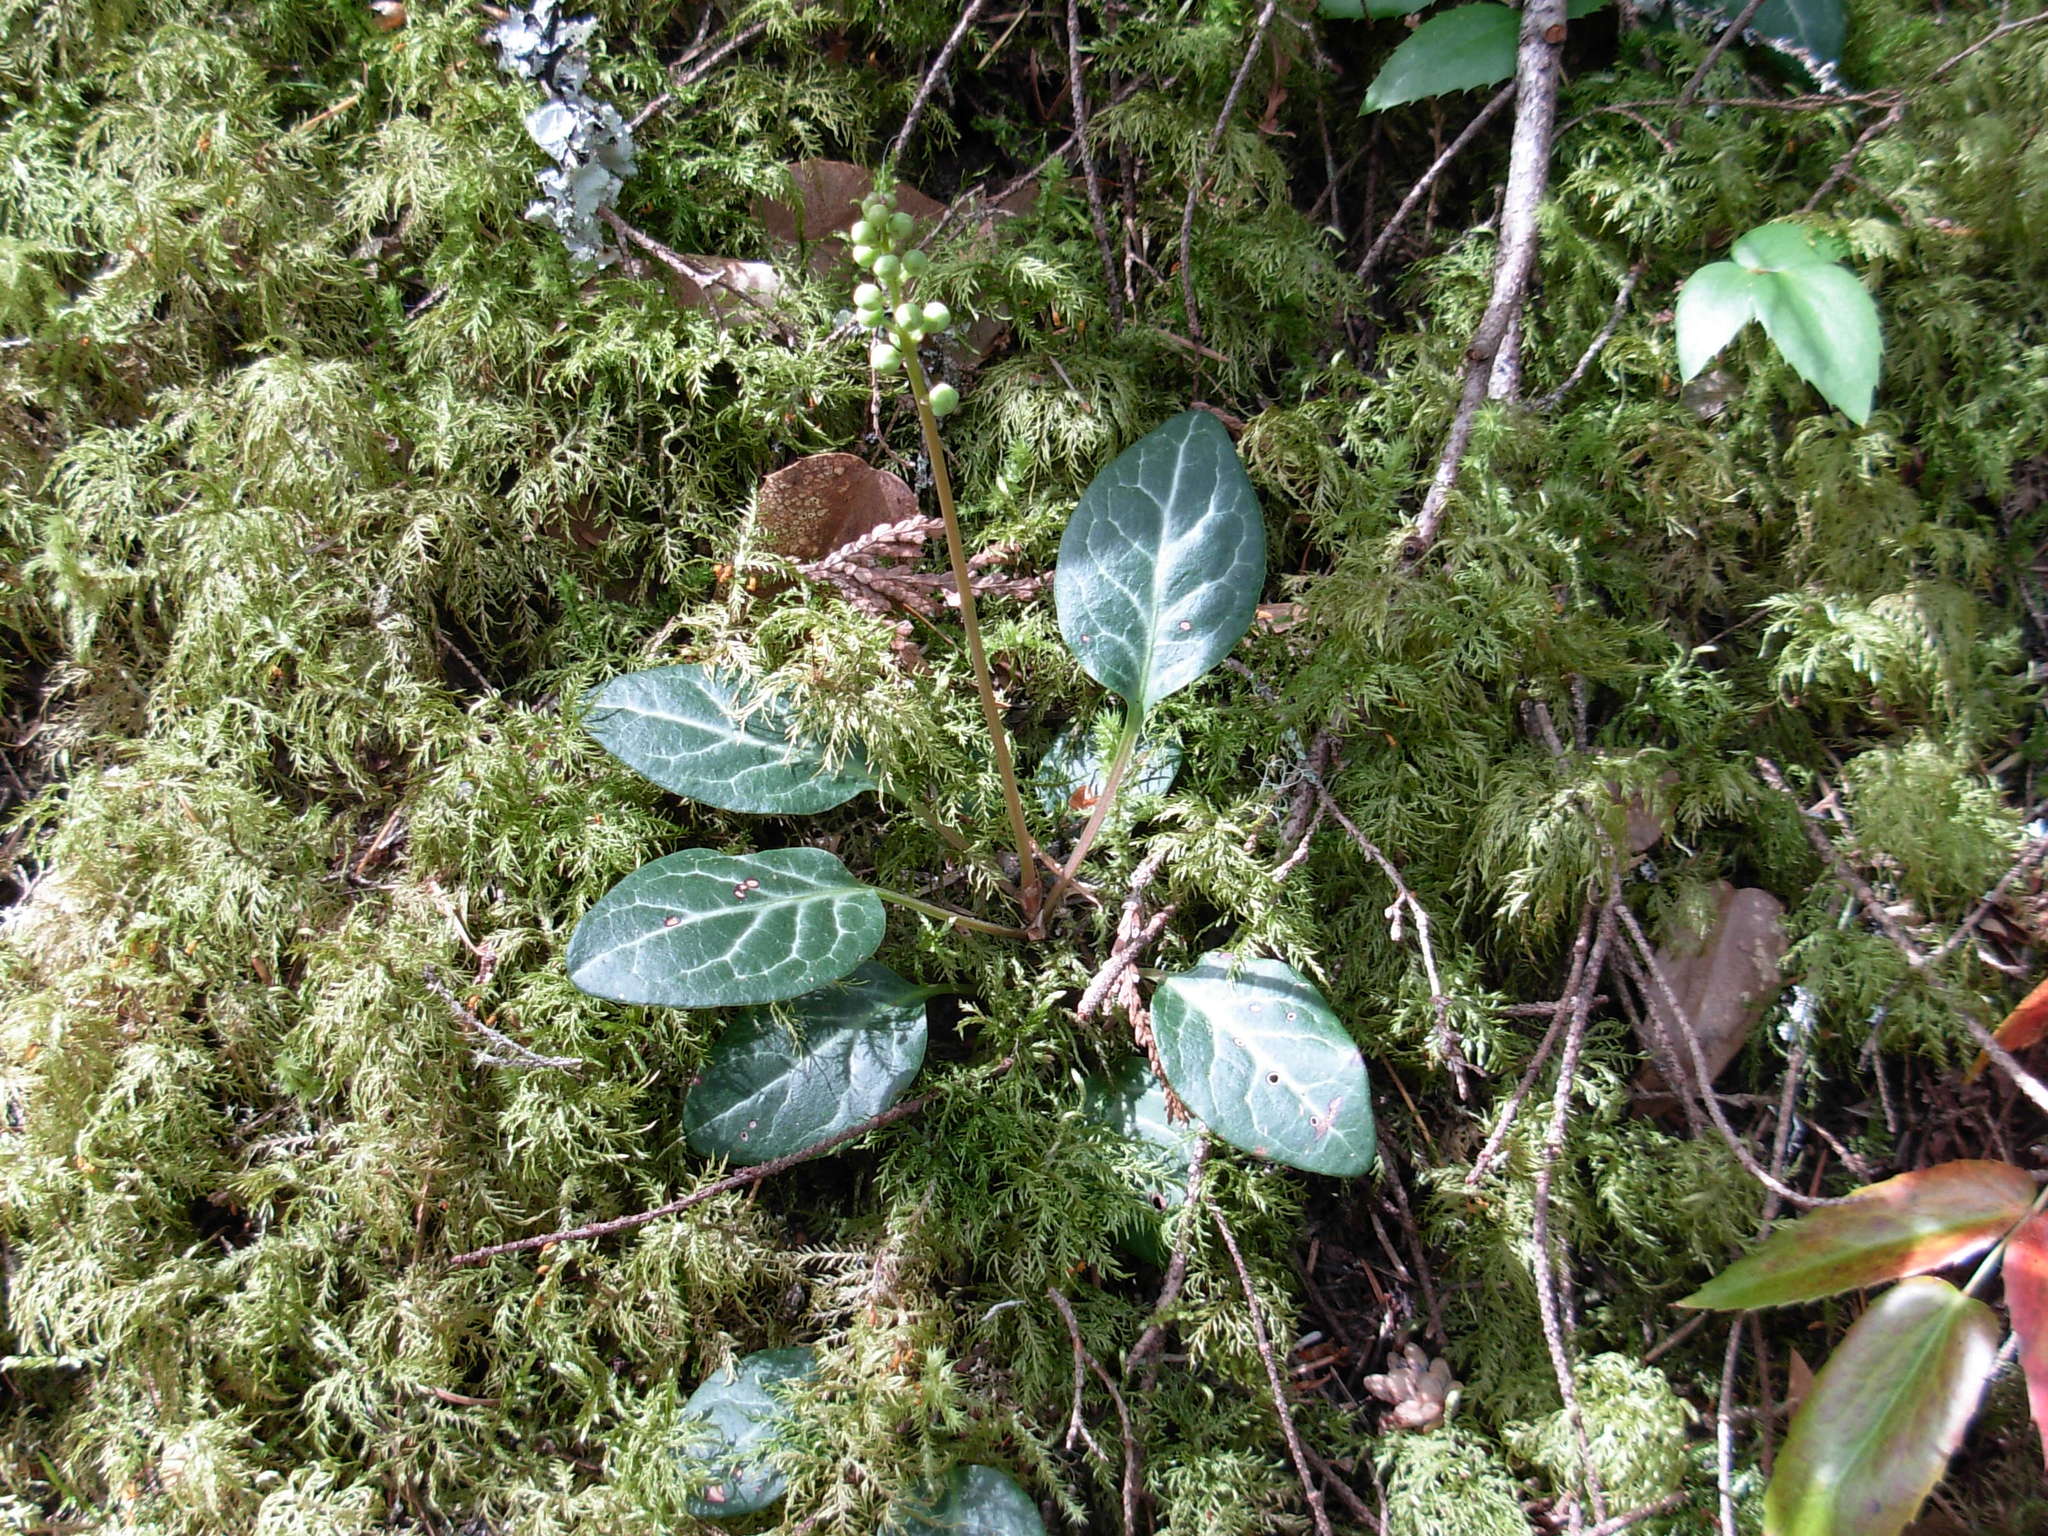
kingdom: Plantae
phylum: Tracheophyta
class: Magnoliopsida
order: Ericales
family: Ericaceae
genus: Pyrola
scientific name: Pyrola picta
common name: White-vein wintergreen
